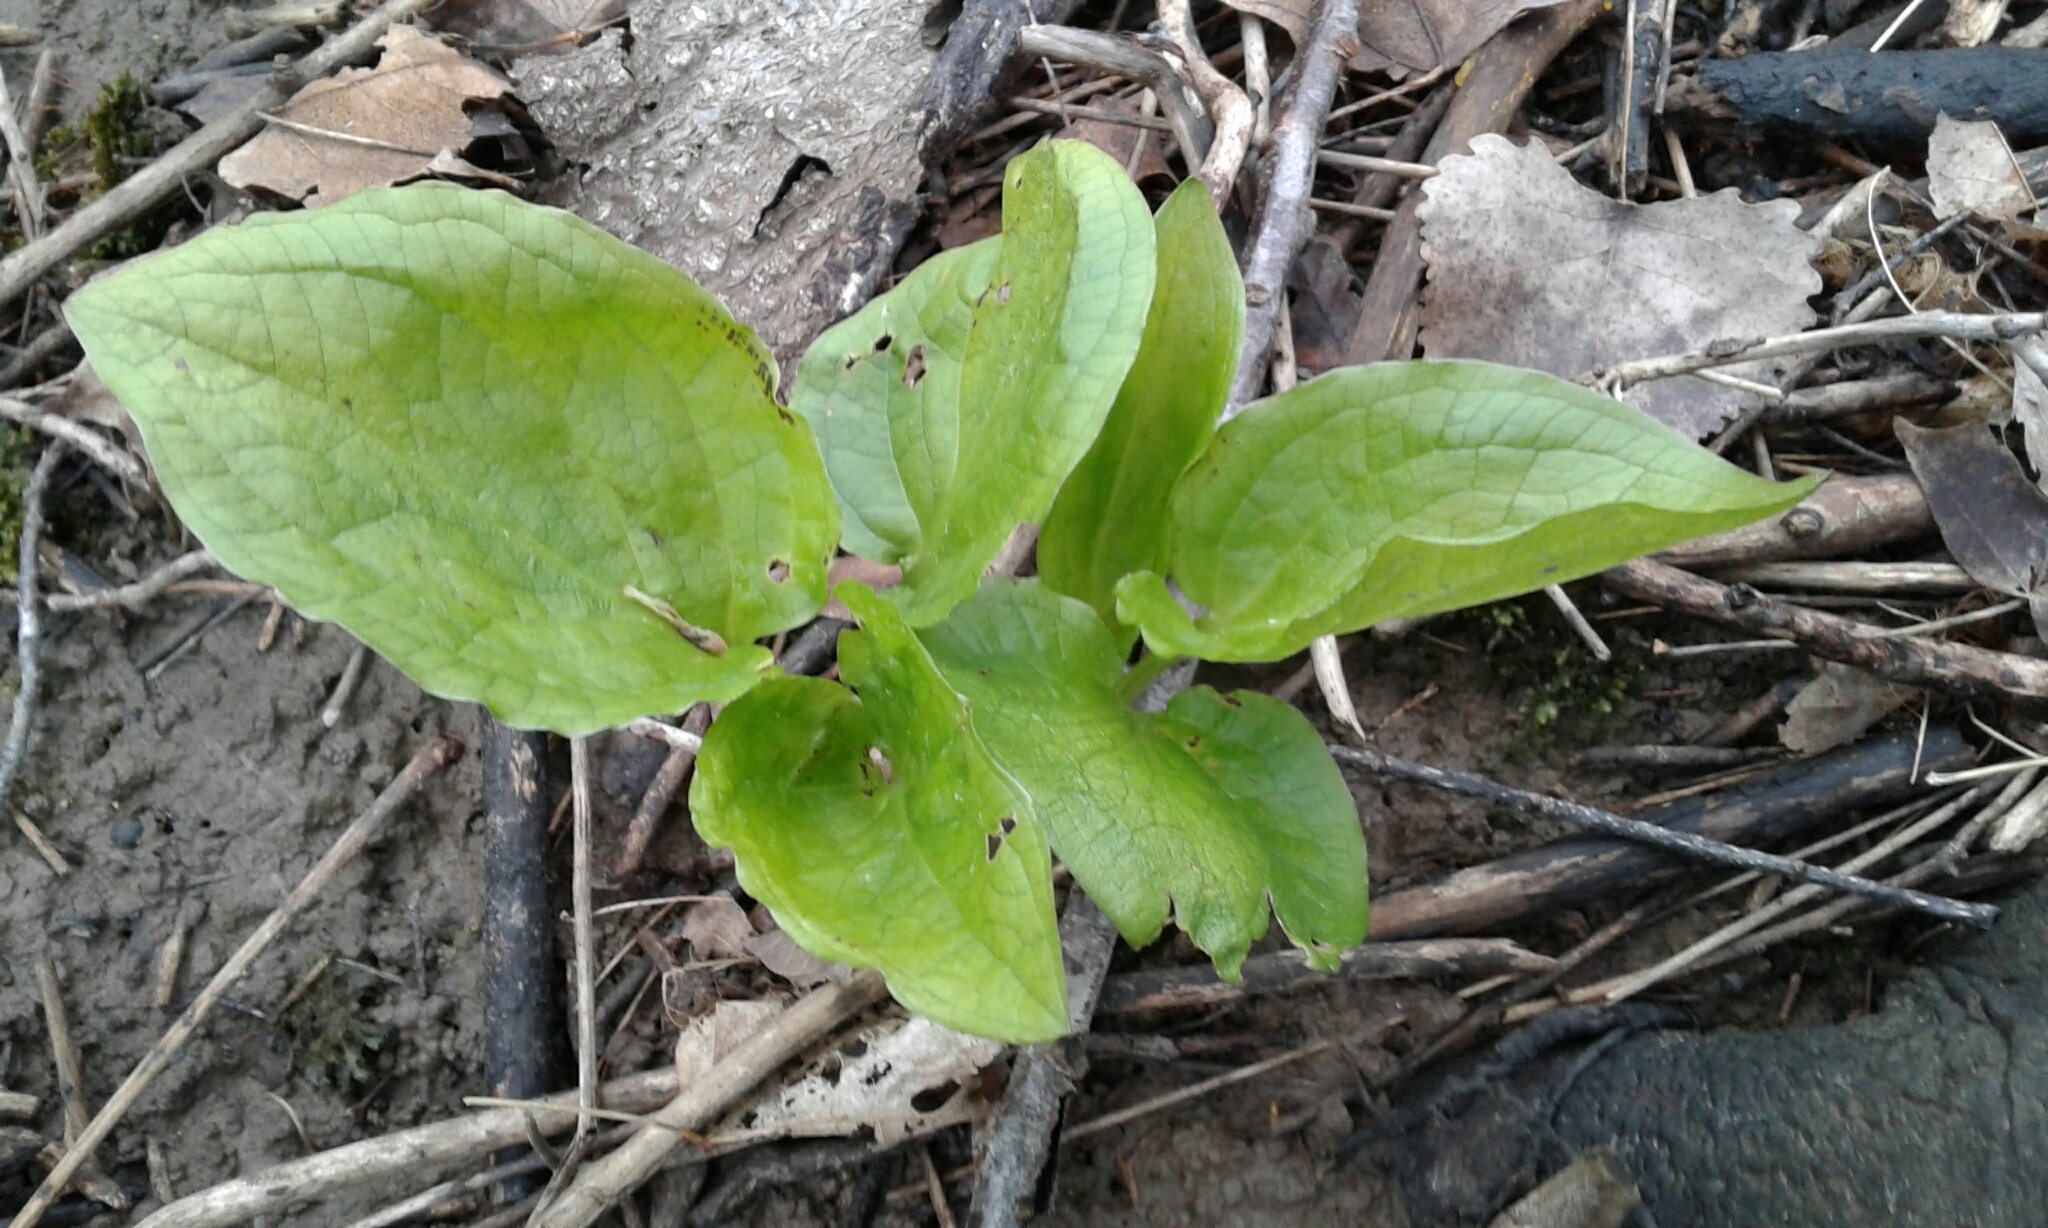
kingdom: Plantae
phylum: Tracheophyta
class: Liliopsida
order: Alismatales
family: Araceae
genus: Symplocarpus
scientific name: Symplocarpus foetidus
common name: Eastern skunk cabbage
